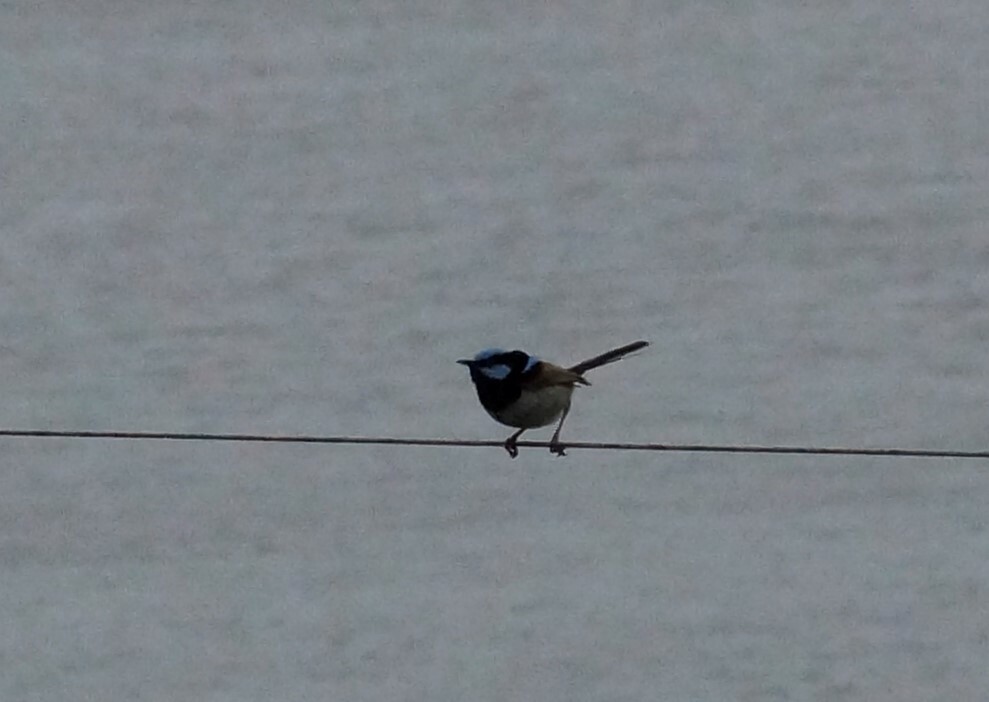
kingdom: Animalia
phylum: Chordata
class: Aves
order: Passeriformes
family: Maluridae
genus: Malurus
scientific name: Malurus cyaneus
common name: Superb fairywren
